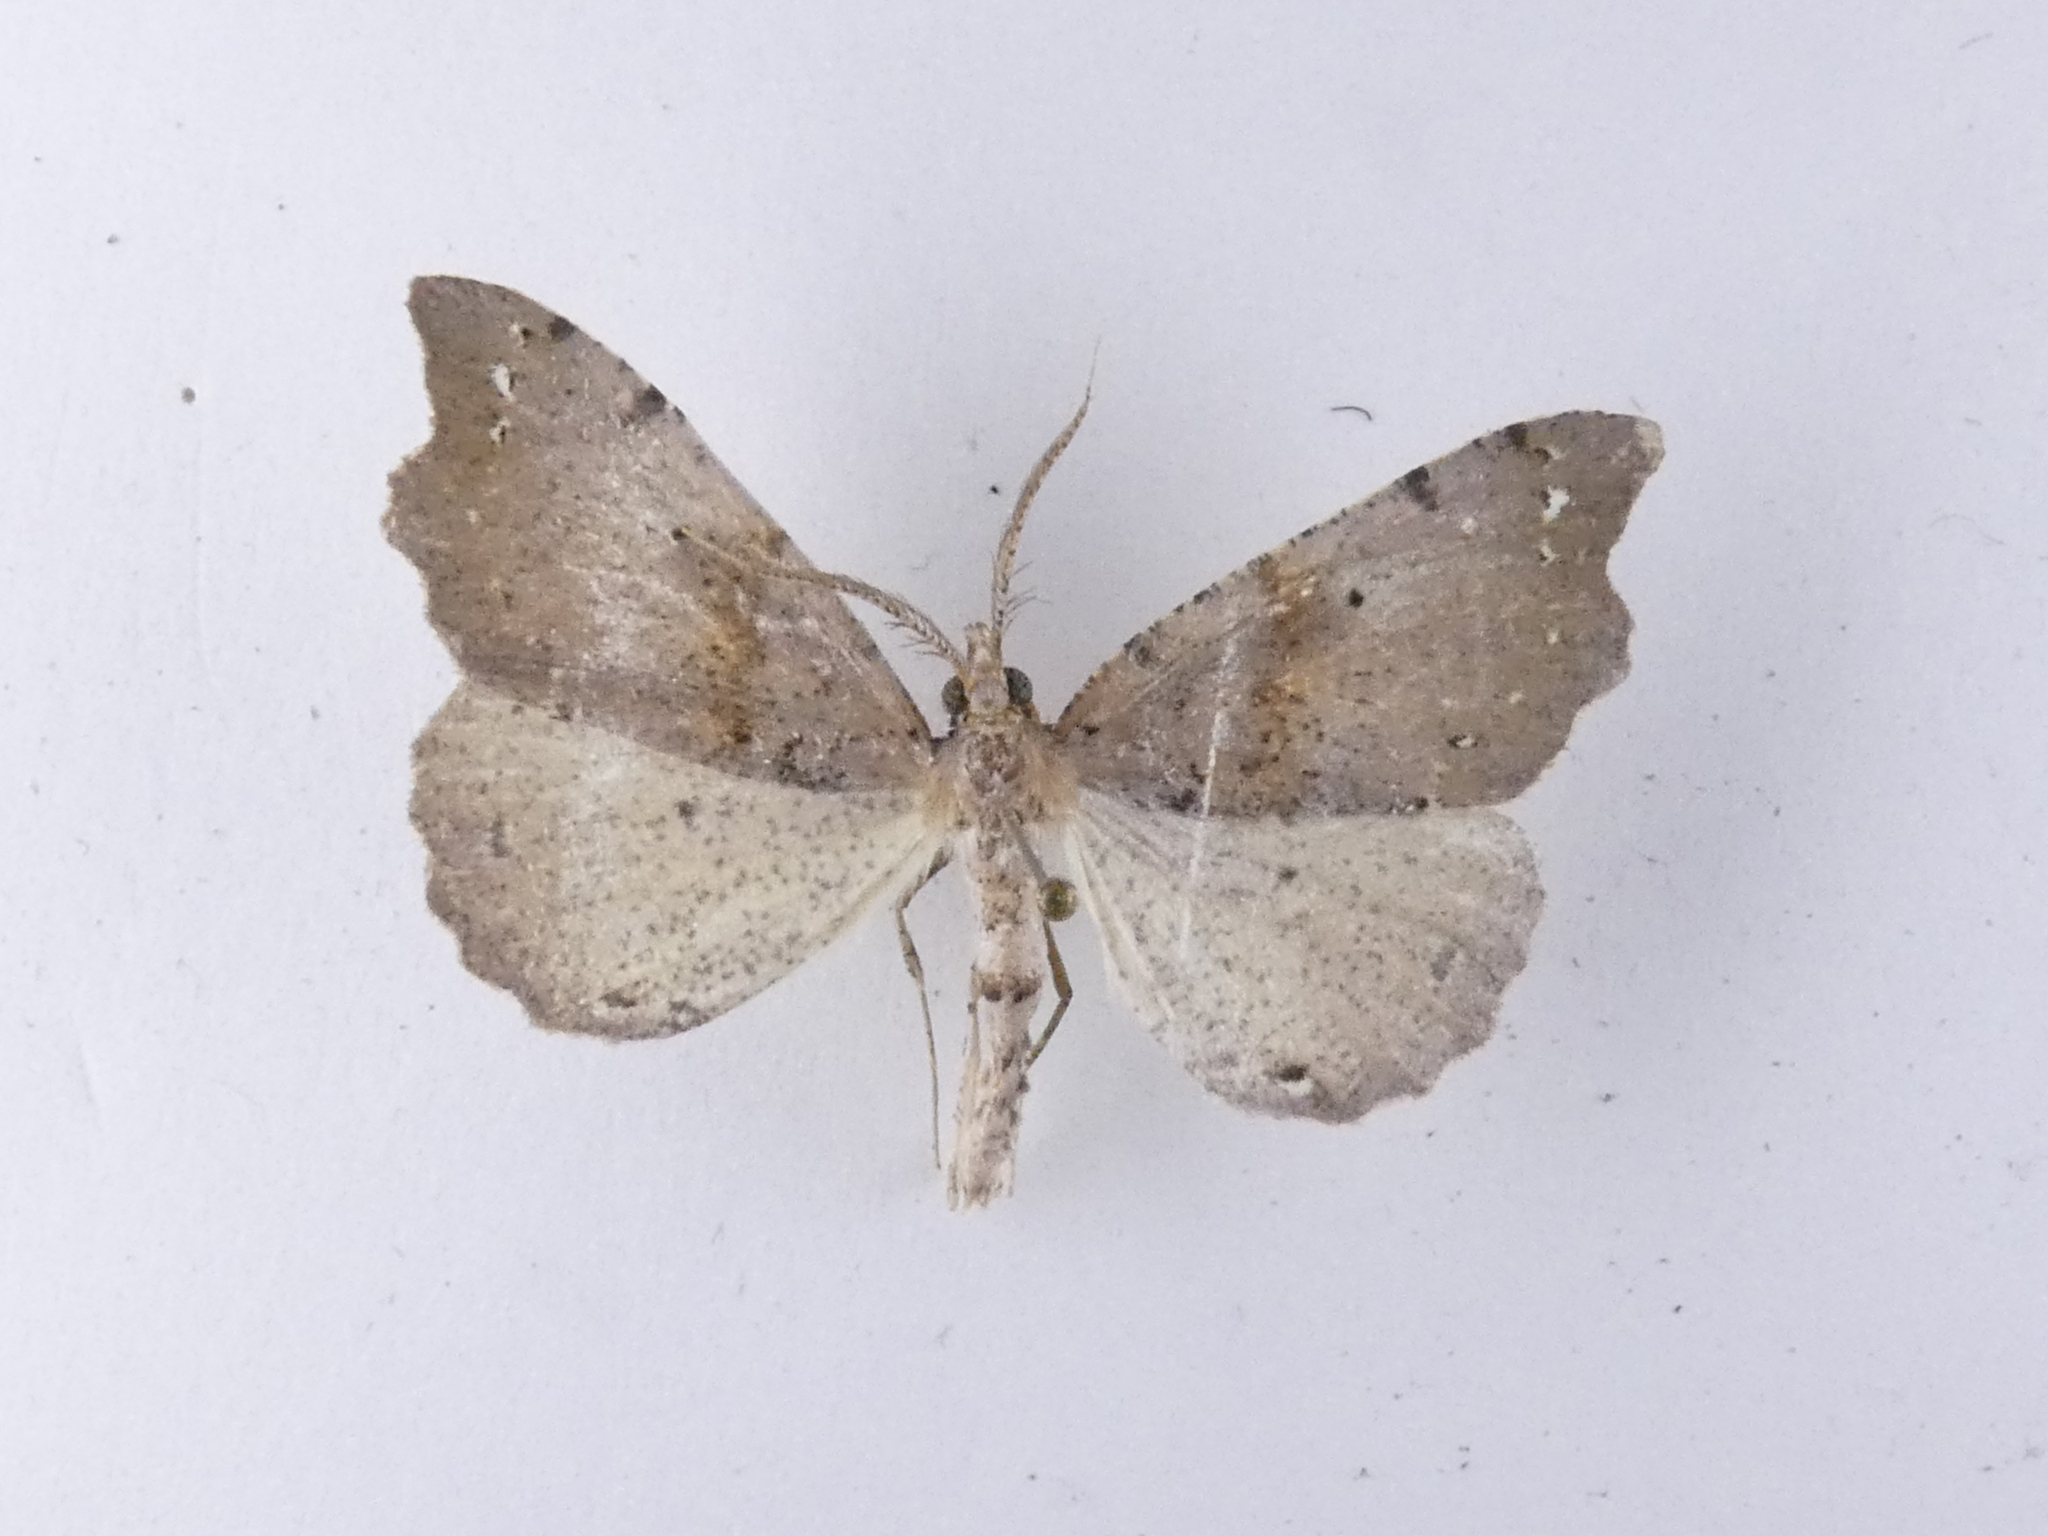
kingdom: Animalia
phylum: Arthropoda
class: Insecta
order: Lepidoptera
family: Geometridae
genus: Chalastra
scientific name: Chalastra pellurgata
